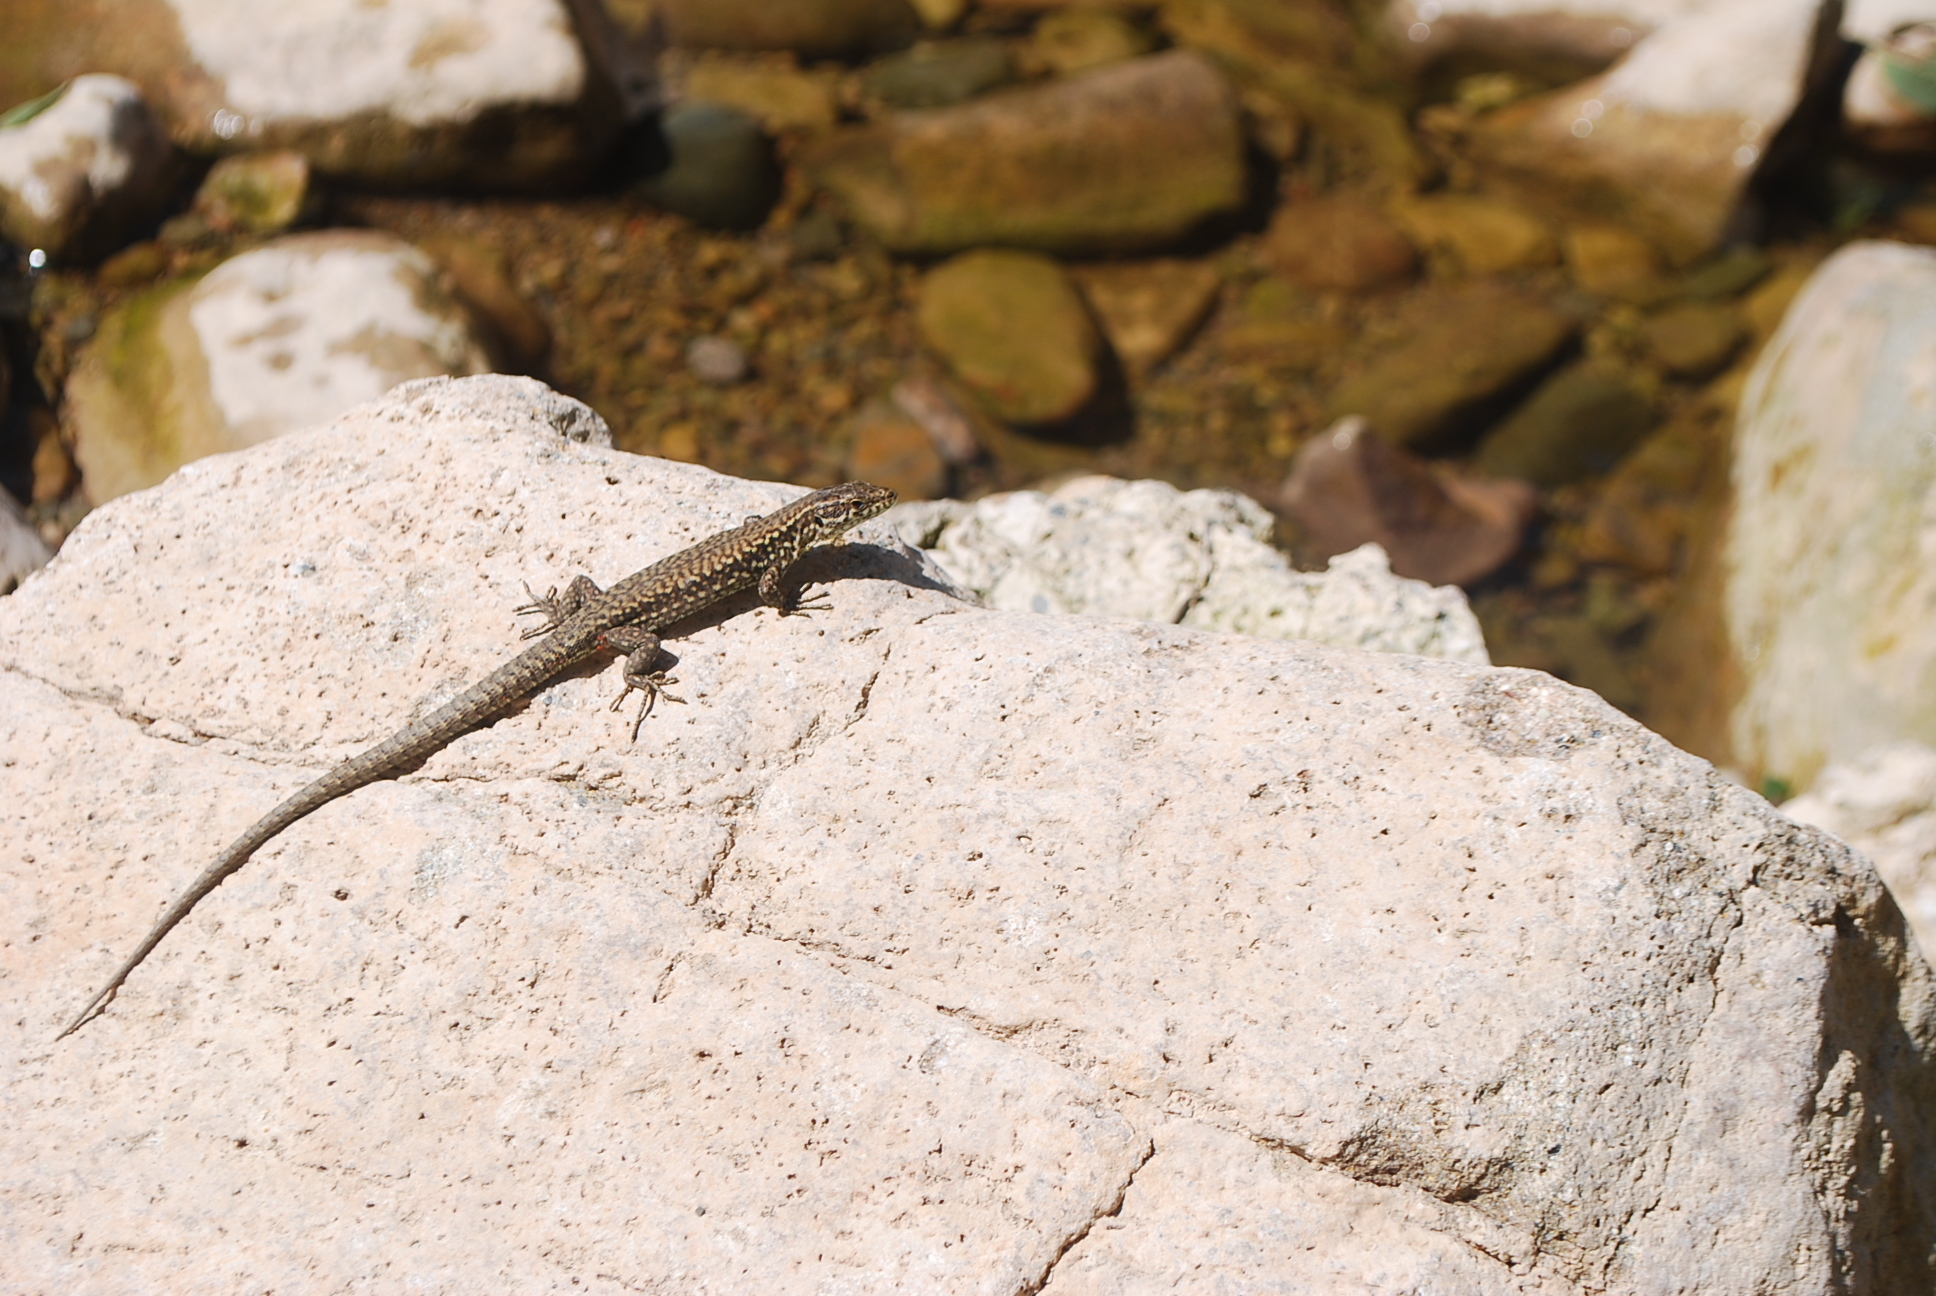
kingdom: Animalia
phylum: Chordata
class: Squamata
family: Lacertidae
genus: Podarcis
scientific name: Podarcis muralis
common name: Common wall lizard
